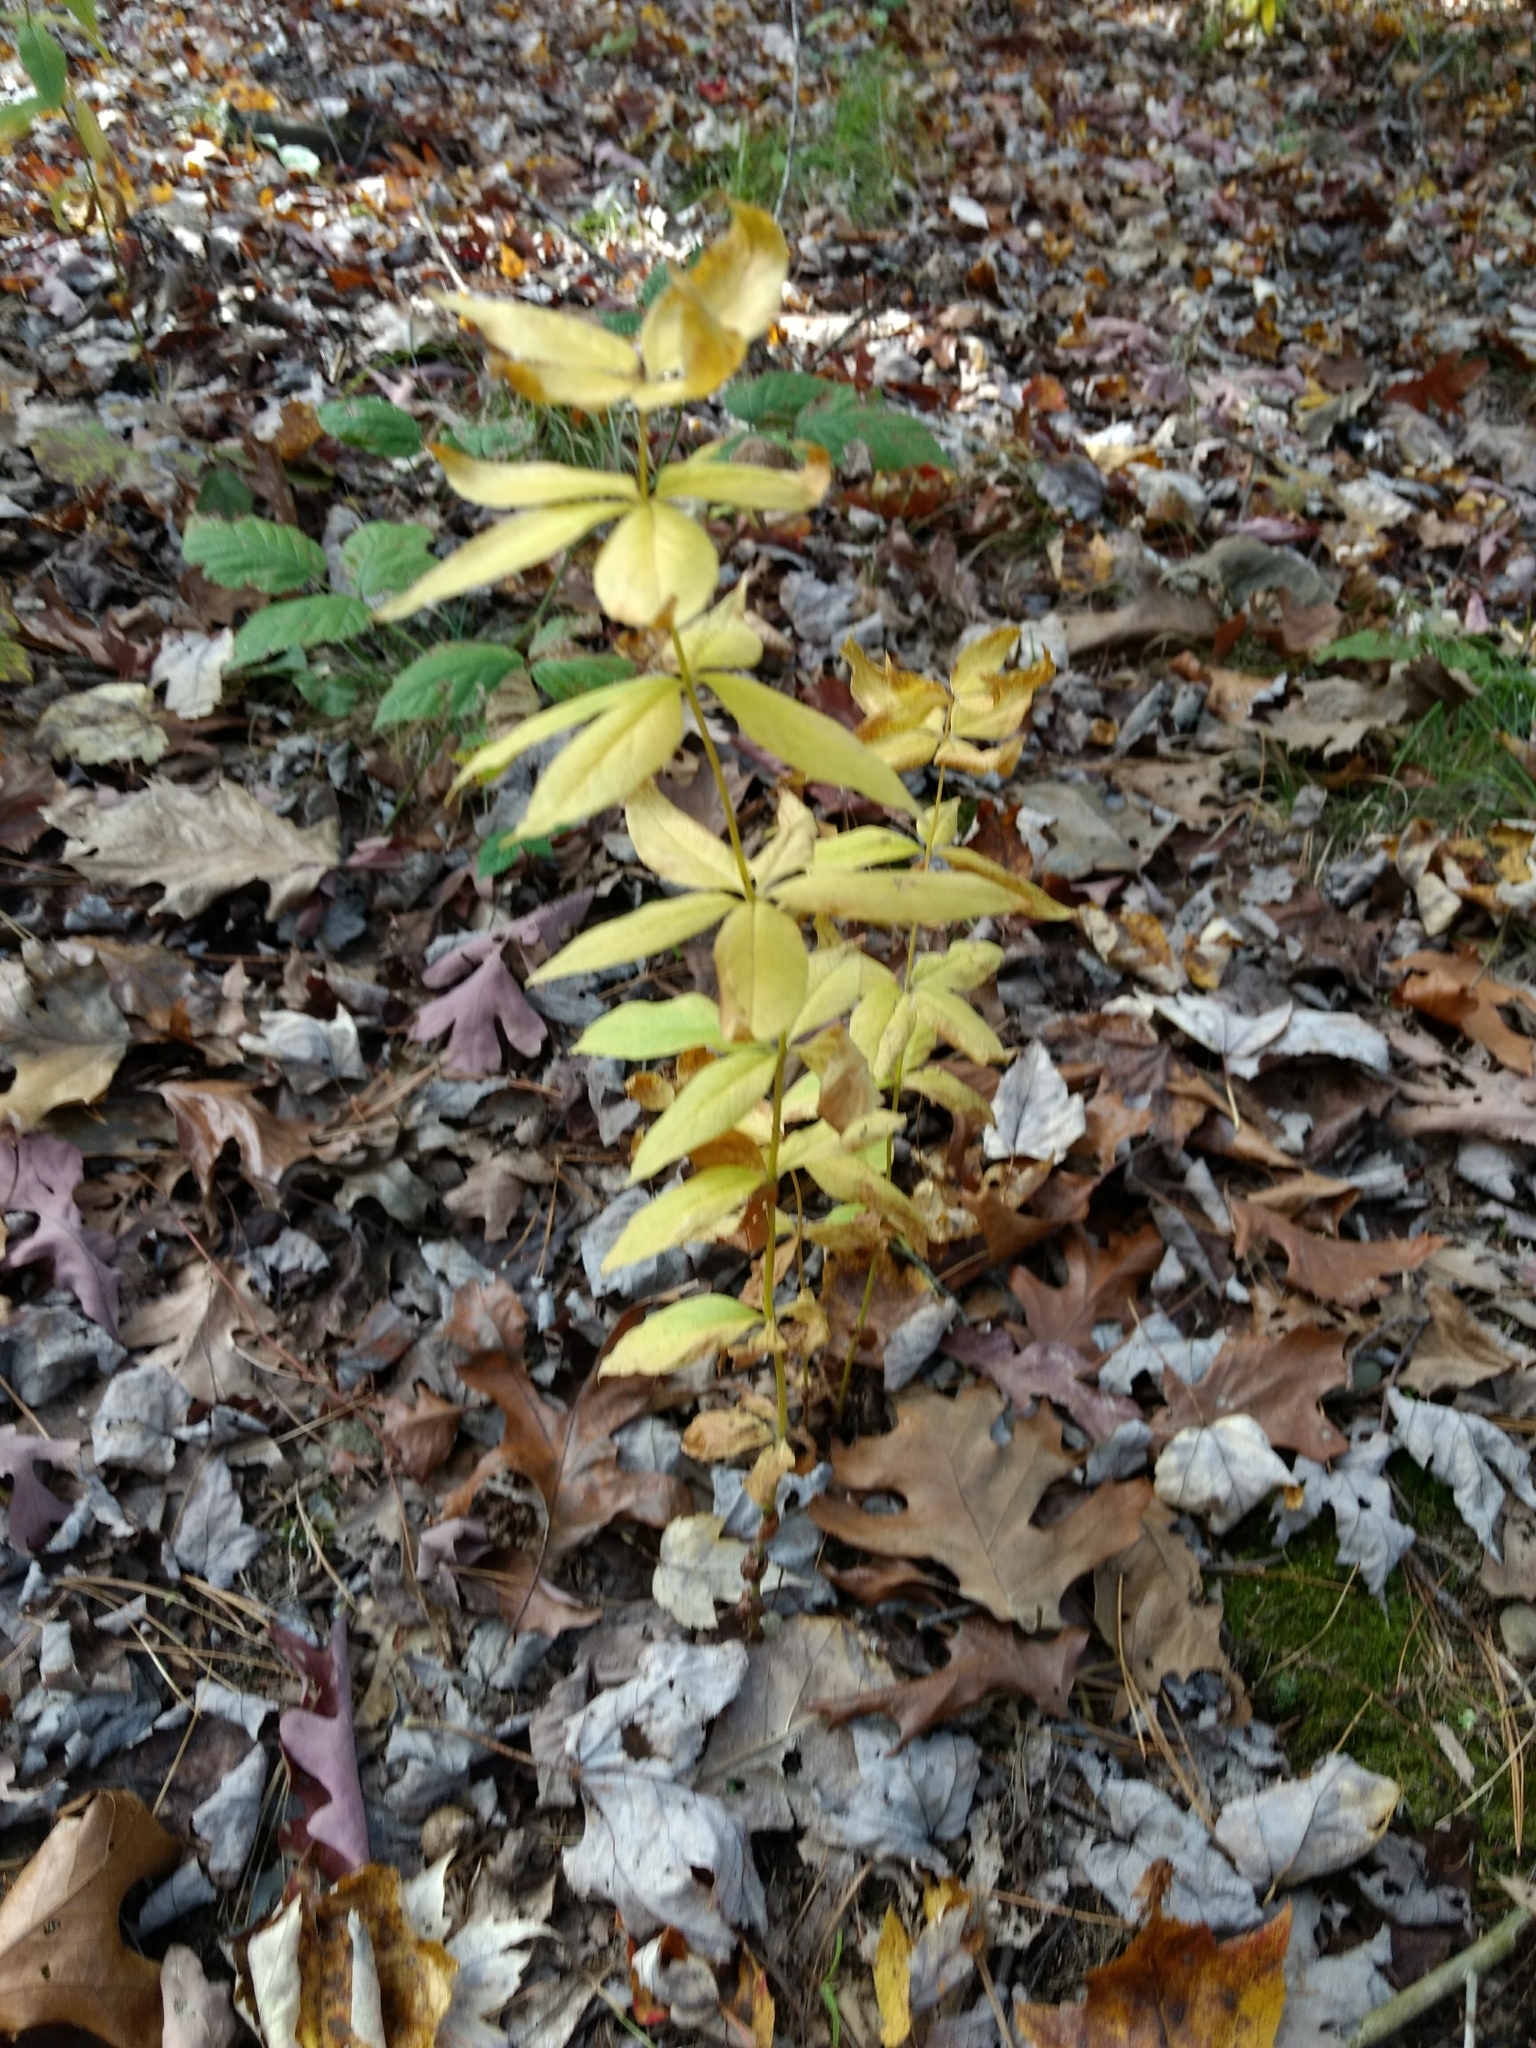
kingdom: Plantae
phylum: Tracheophyta
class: Magnoliopsida
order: Ericales
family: Primulaceae
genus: Lysimachia
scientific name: Lysimachia quadrifolia
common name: Whorled loosestrife
